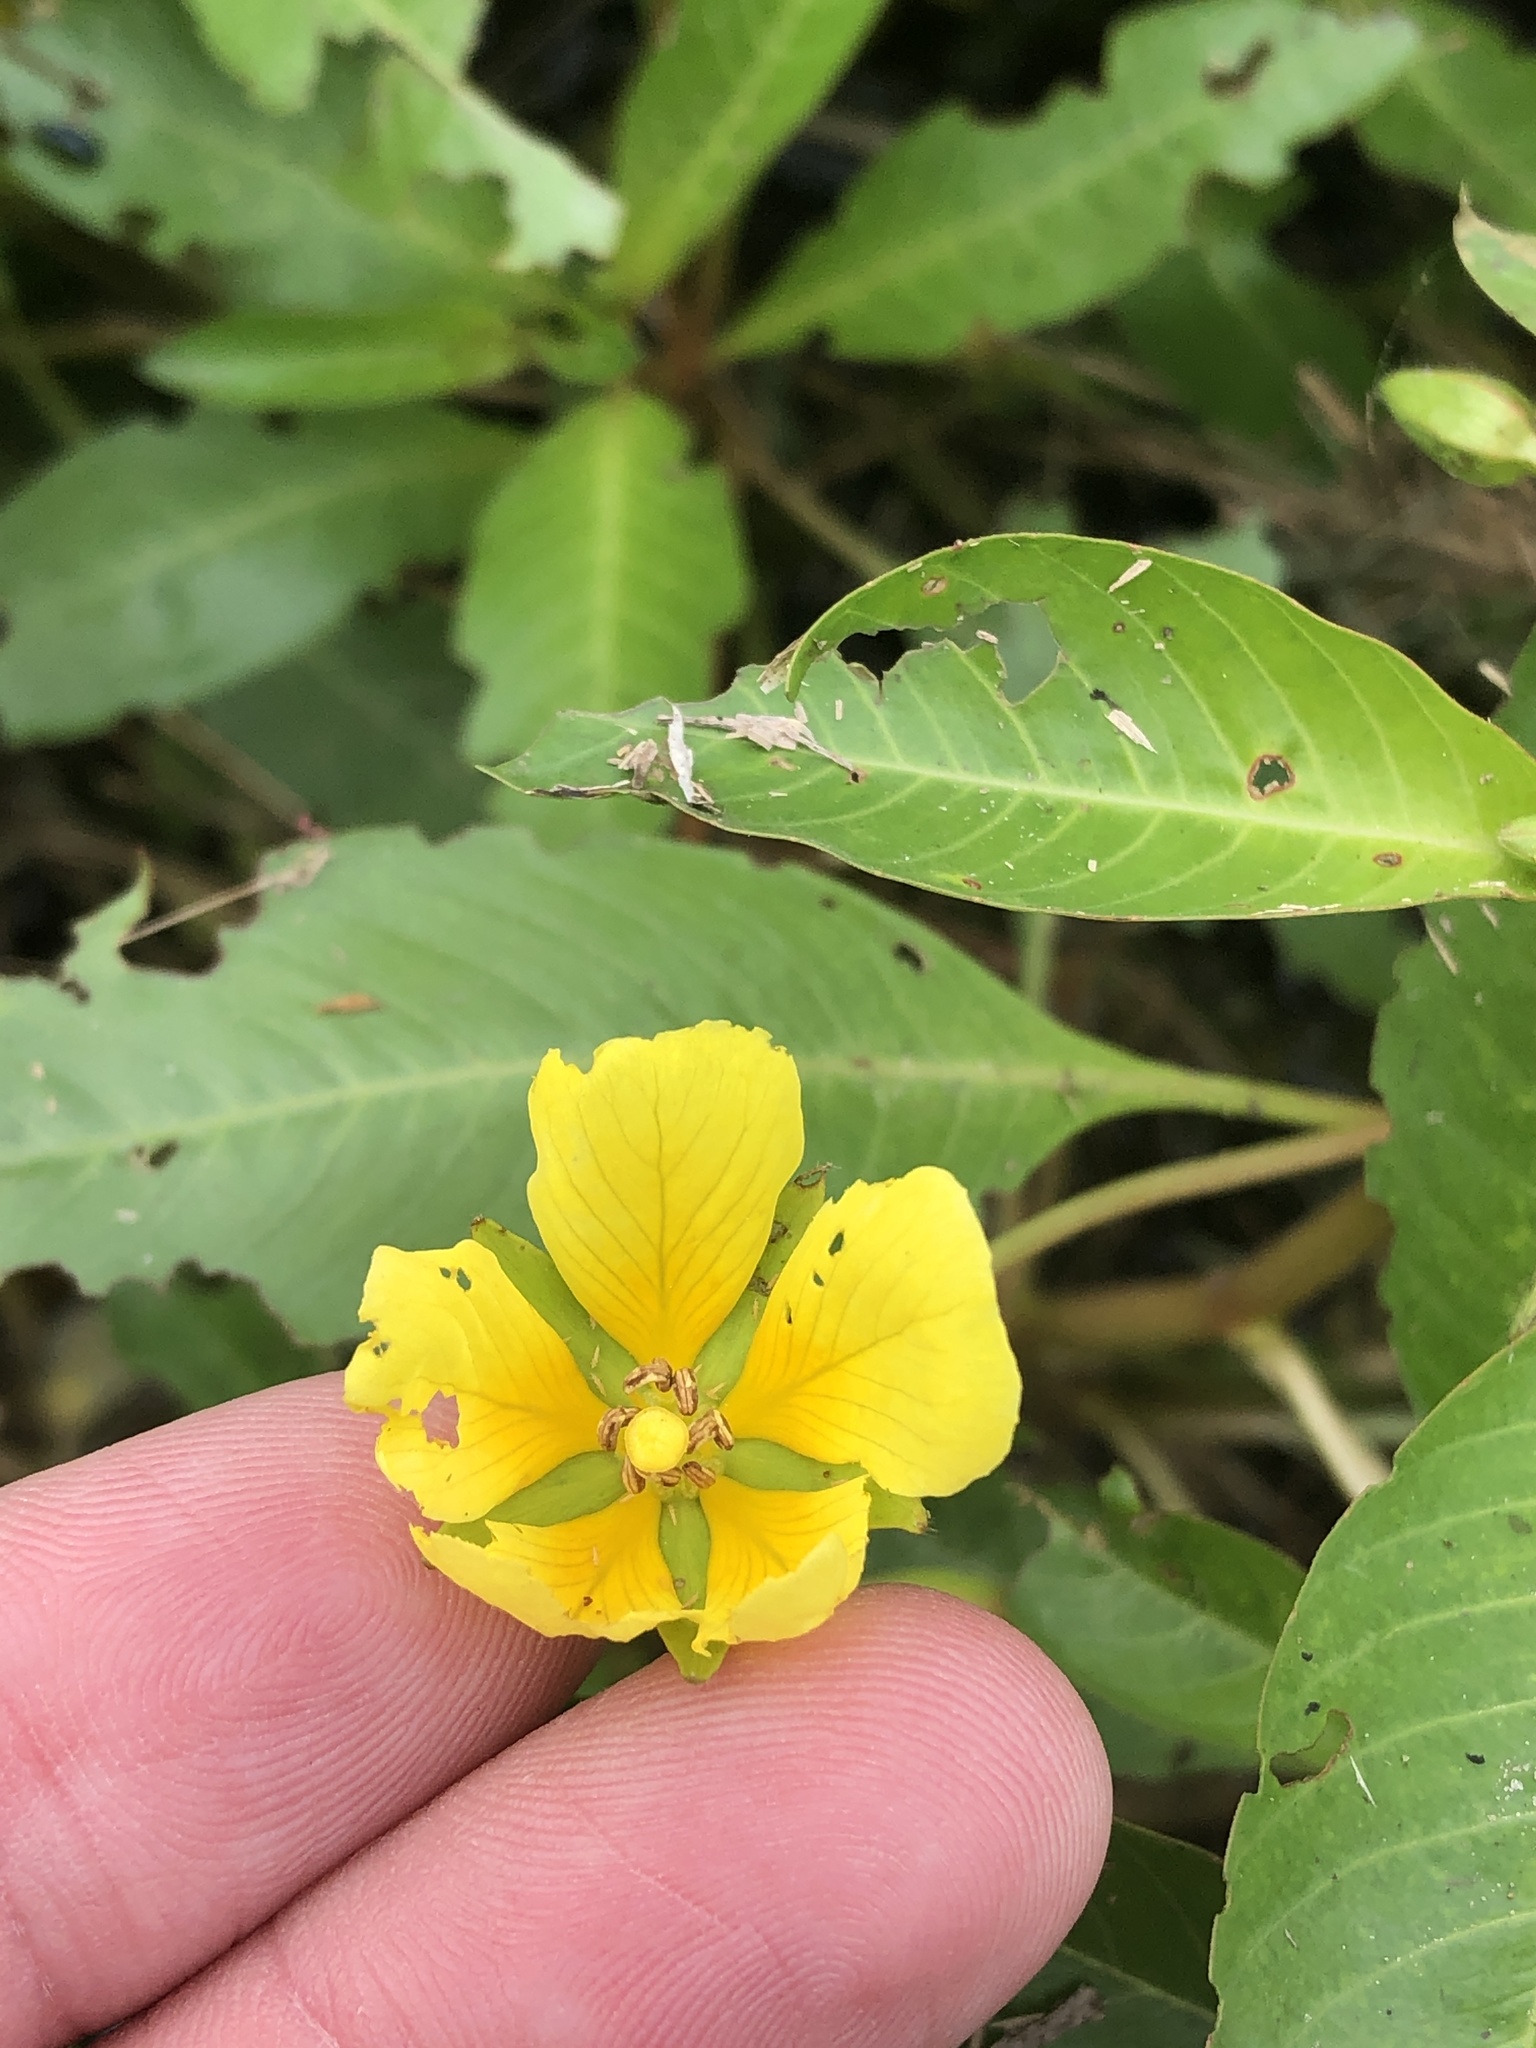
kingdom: Plantae
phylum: Tracheophyta
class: Magnoliopsida
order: Myrtales
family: Onagraceae
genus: Ludwigia
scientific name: Ludwigia peploides
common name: Floating primrose-willow
